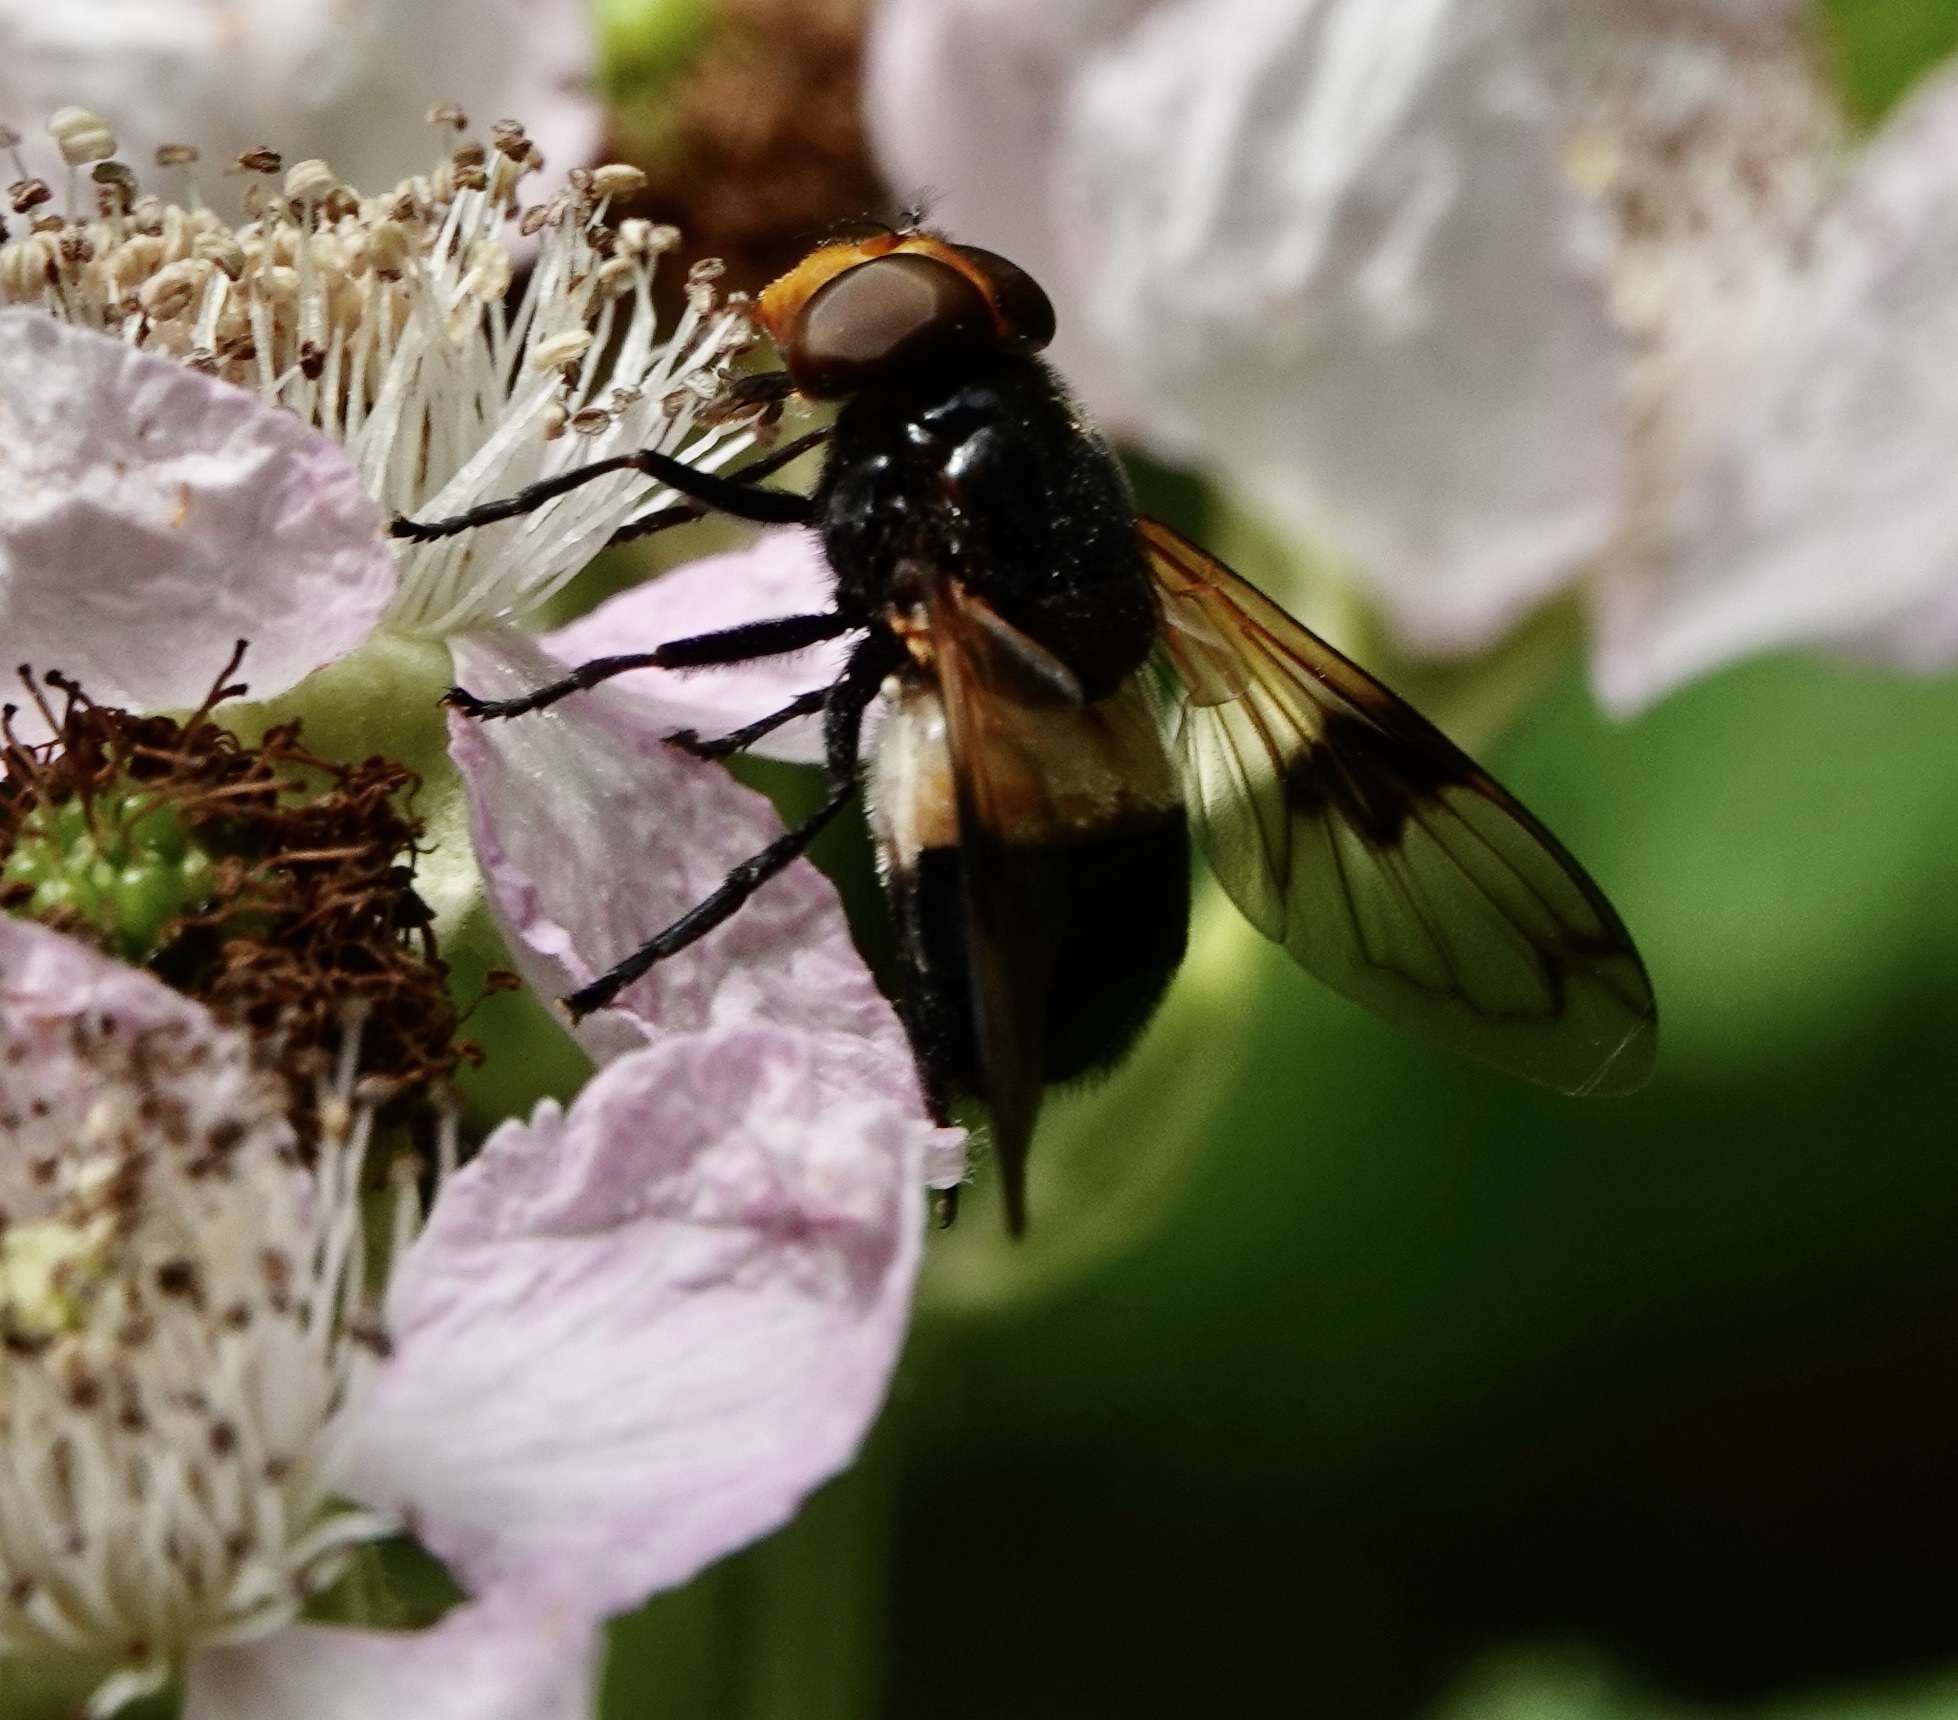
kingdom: Animalia
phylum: Arthropoda
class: Insecta
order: Diptera
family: Syrphidae
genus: Volucella
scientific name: Volucella pellucens
